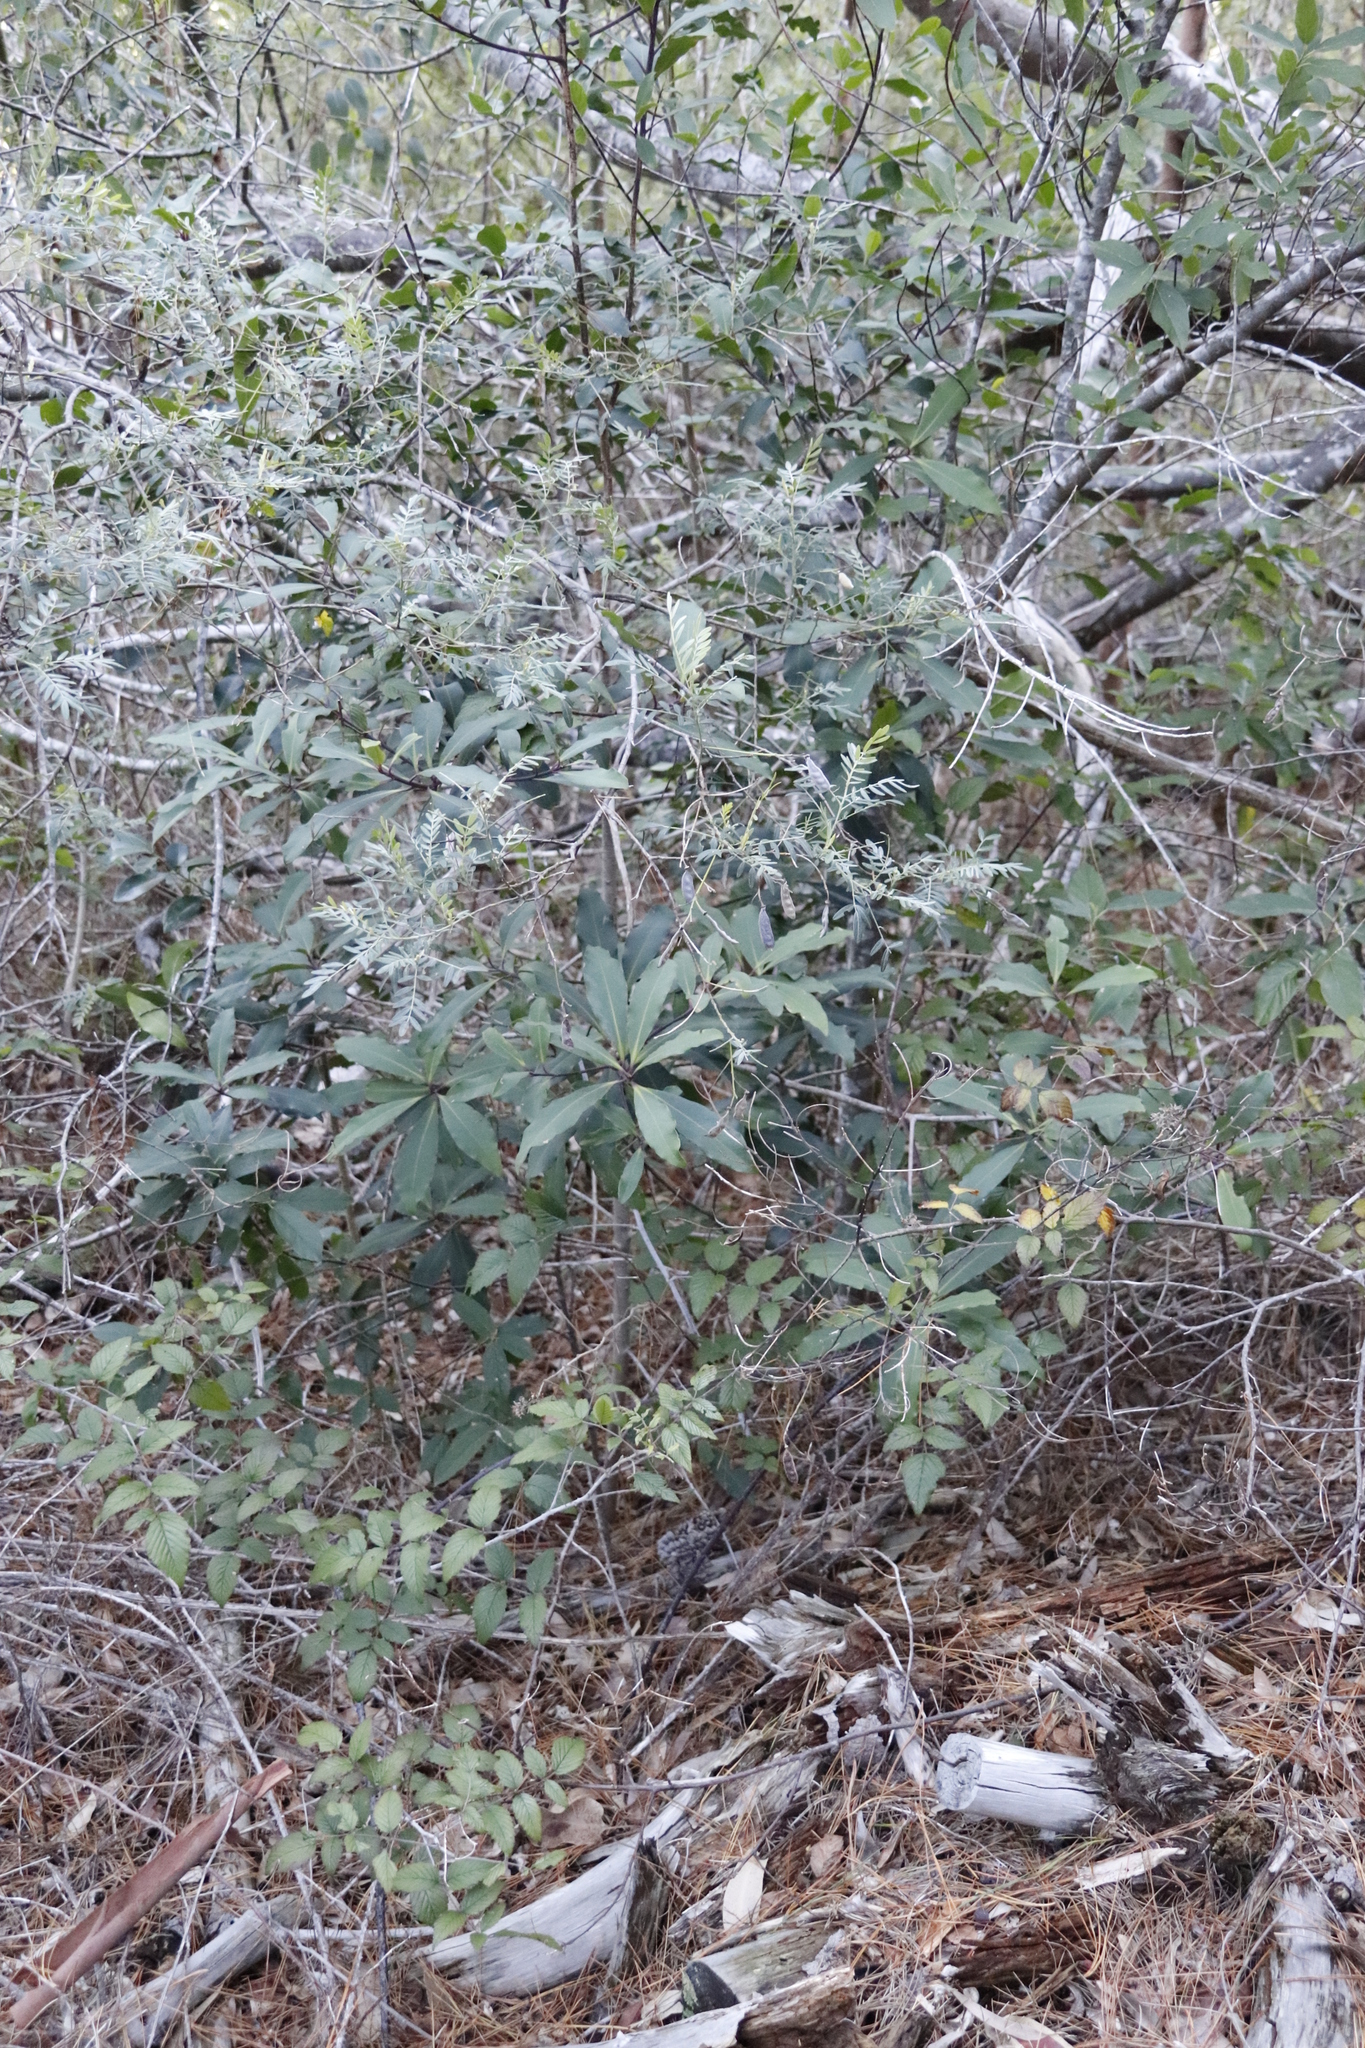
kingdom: Plantae
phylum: Tracheophyta
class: Magnoliopsida
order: Ericales
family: Primulaceae
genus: Myrsine
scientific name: Myrsine melanophloeos
